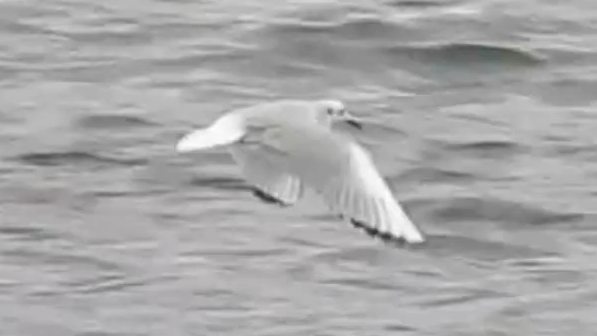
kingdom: Animalia
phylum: Chordata
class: Aves
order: Charadriiformes
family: Laridae
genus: Chroicocephalus
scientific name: Chroicocephalus philadelphia
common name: Bonaparte's gull
